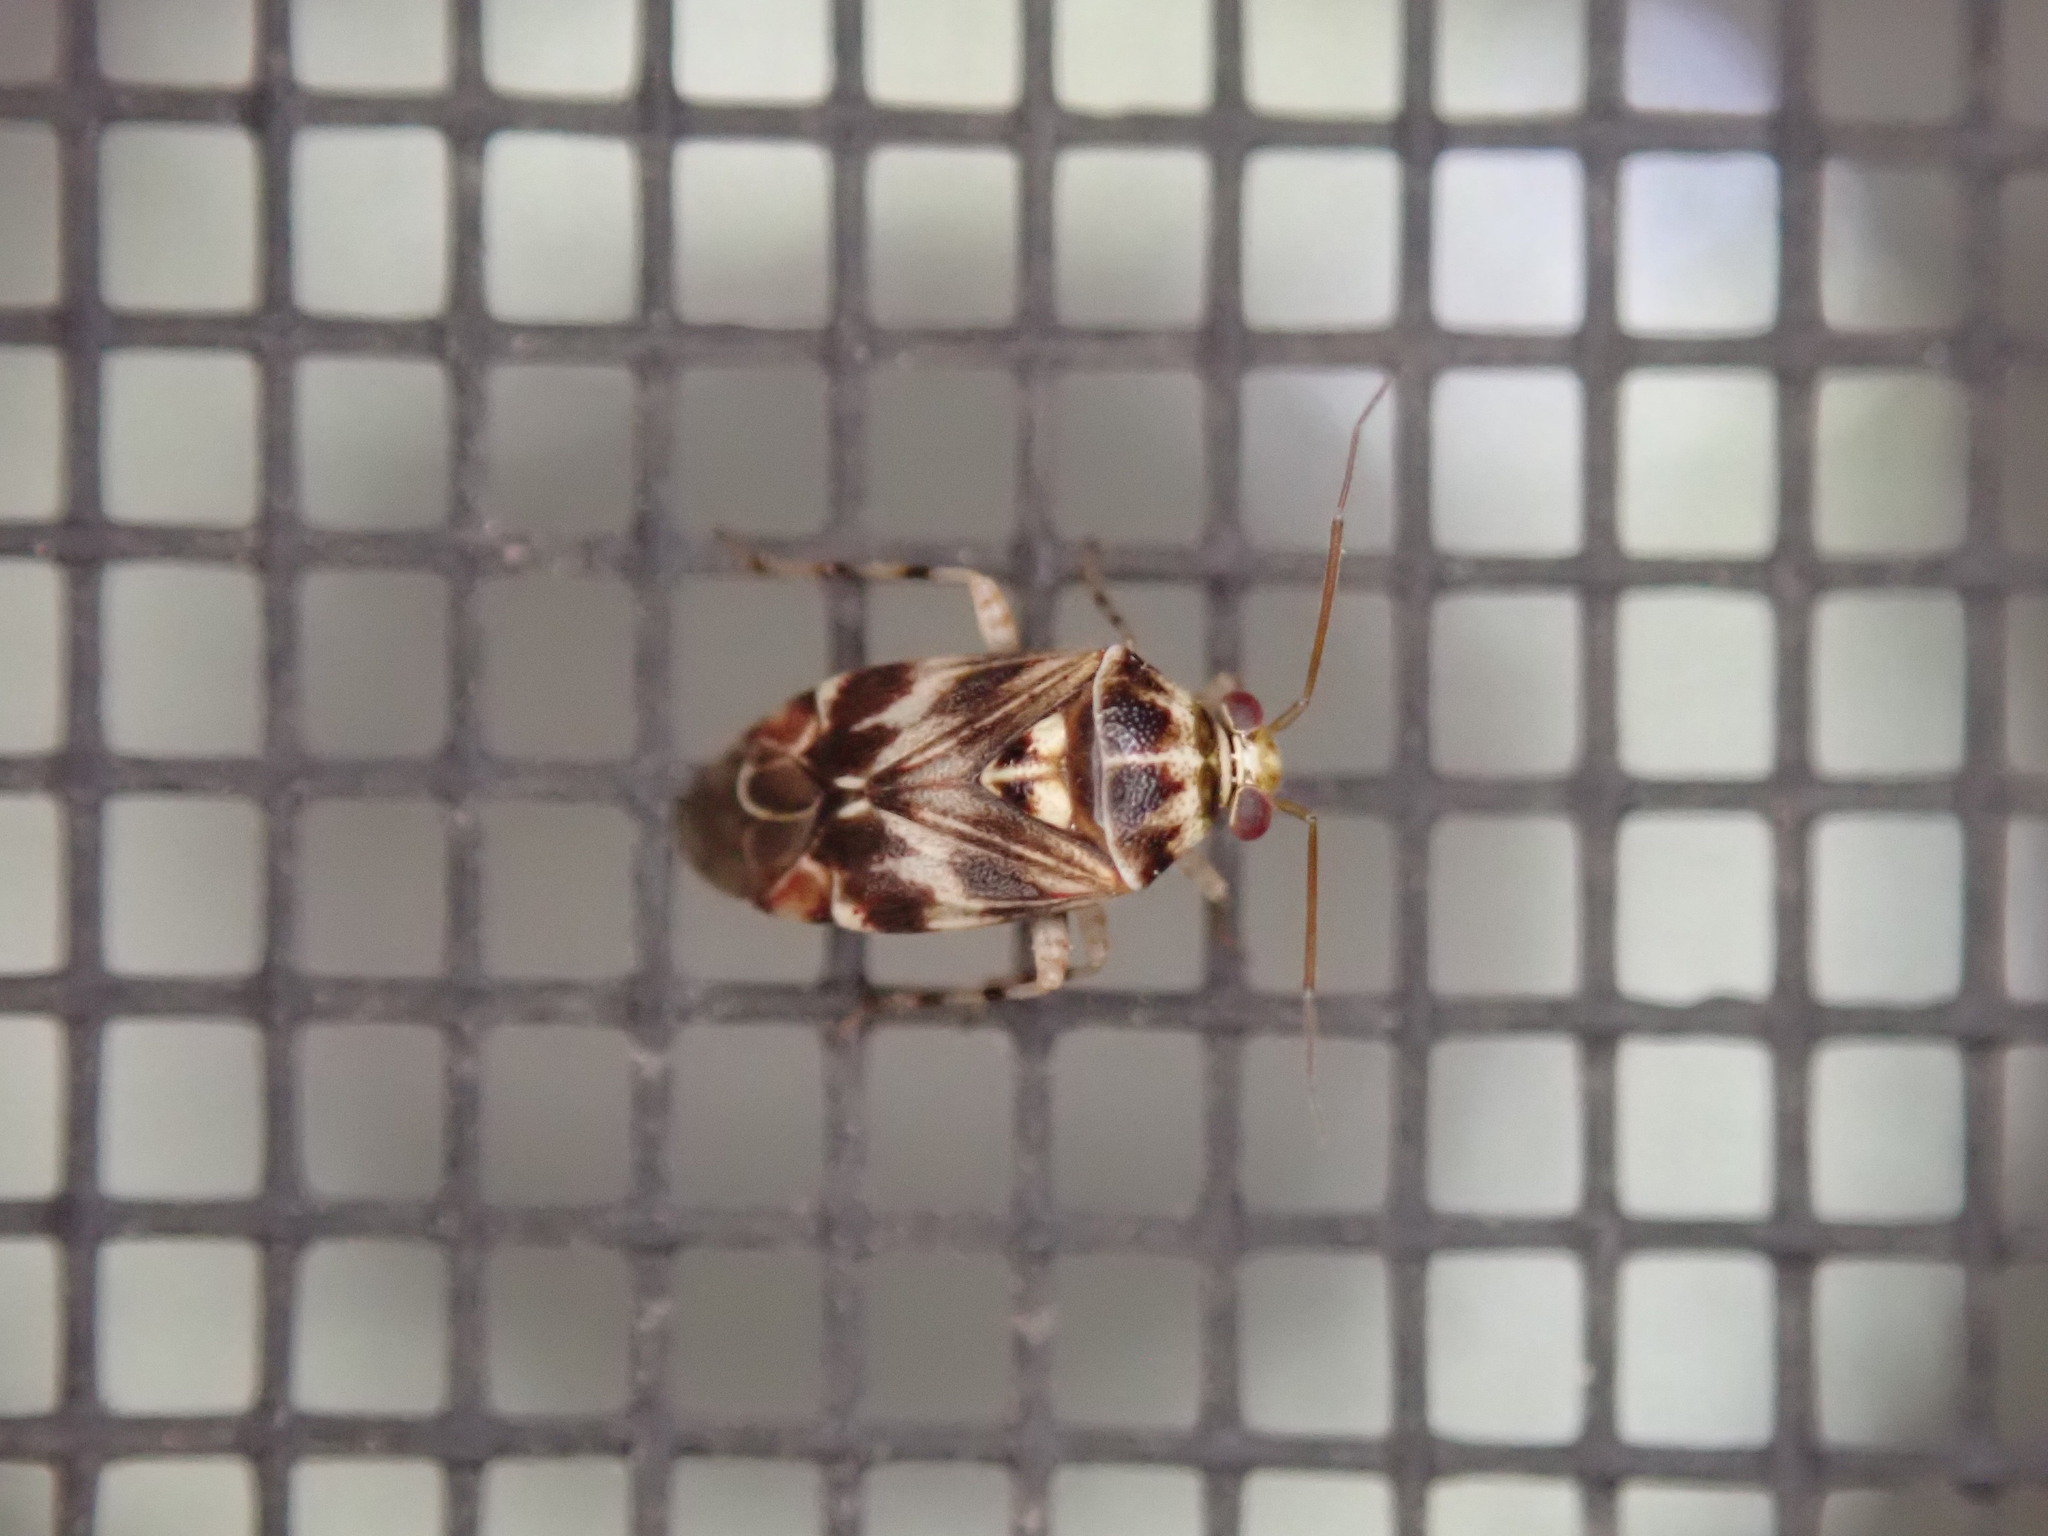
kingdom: Animalia
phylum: Arthropoda
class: Insecta
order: Hemiptera
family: Miridae
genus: Tropidosteptes
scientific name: Tropidosteptes quercicola
